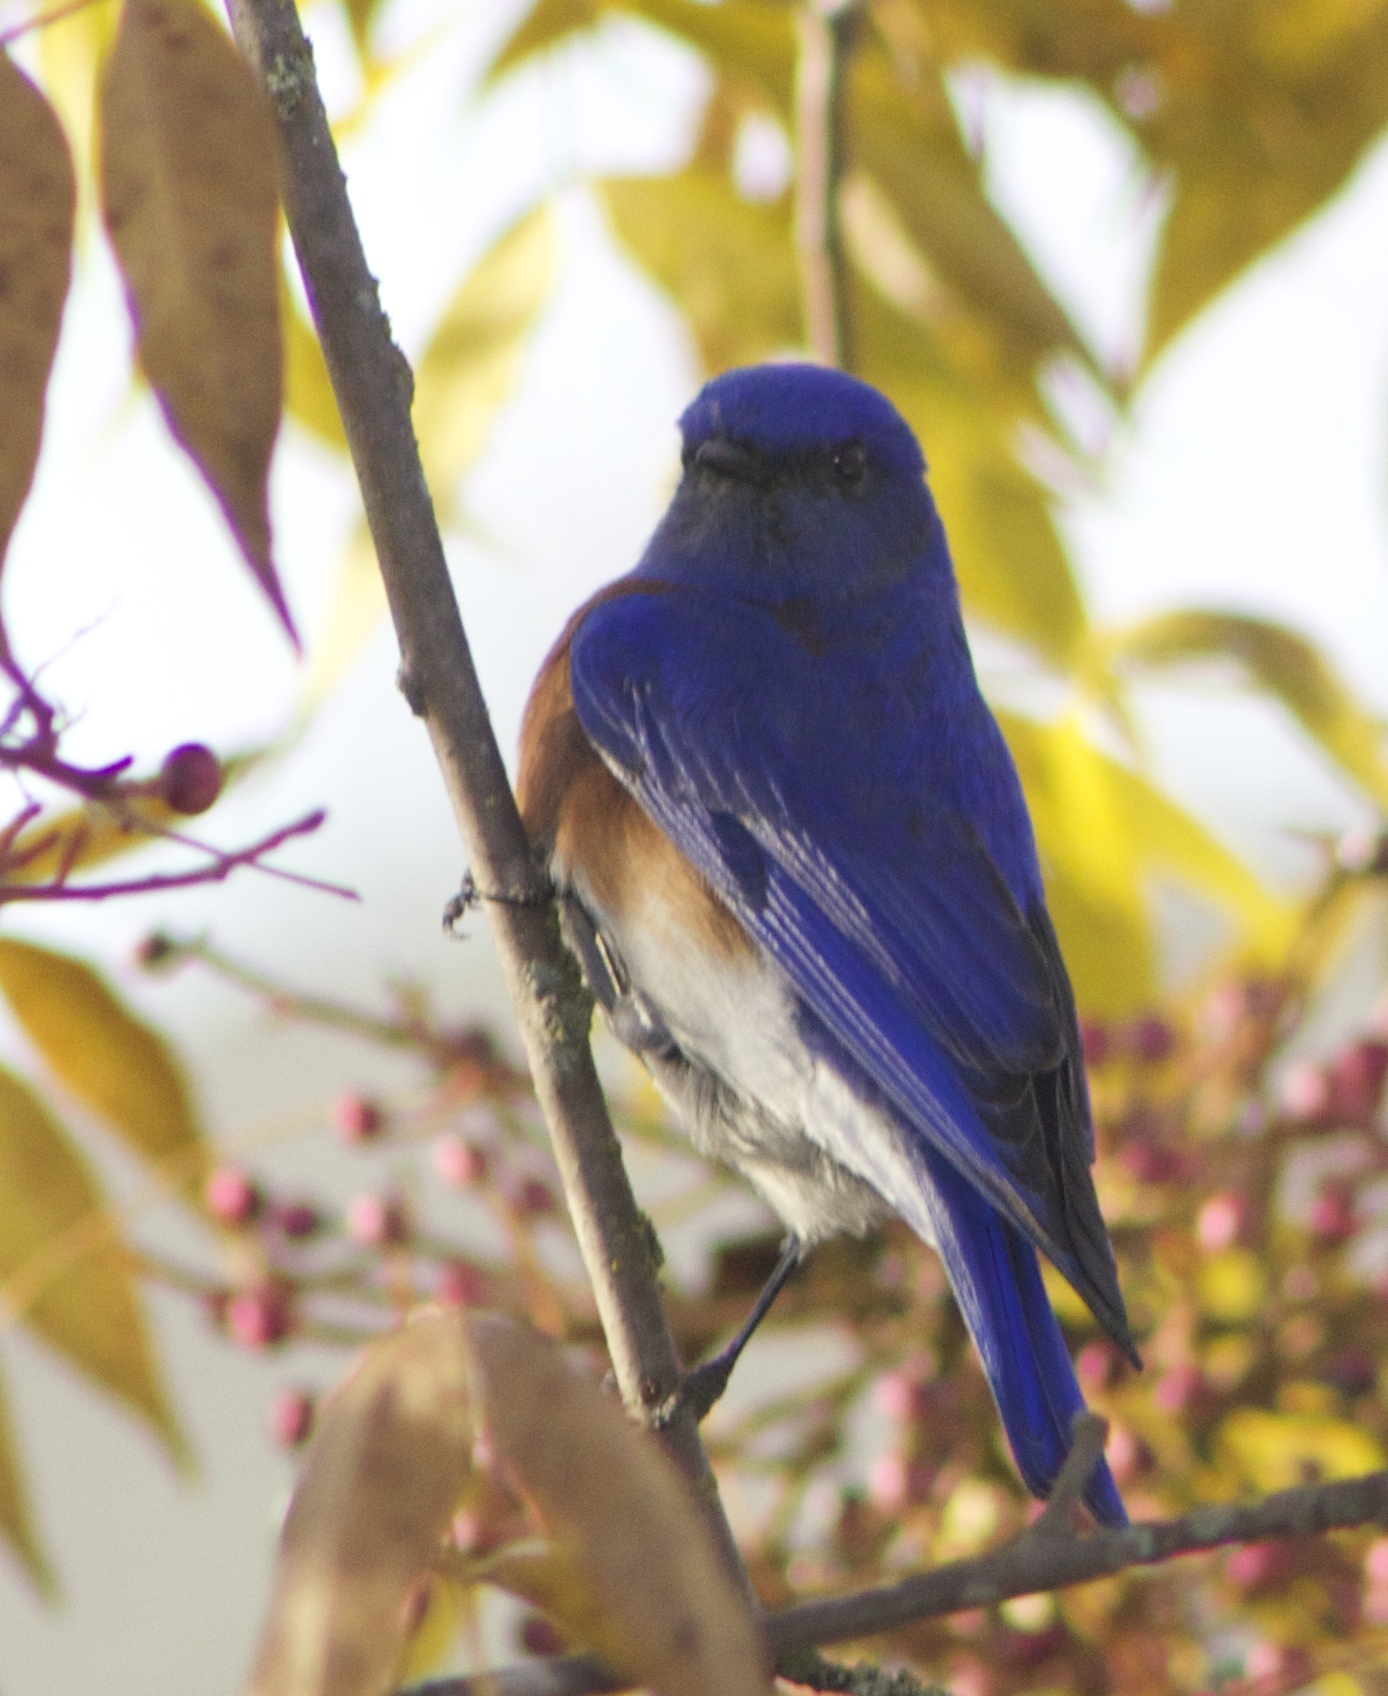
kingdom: Animalia
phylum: Chordata
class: Aves
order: Passeriformes
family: Turdidae
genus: Sialia
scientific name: Sialia mexicana
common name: Western bluebird
